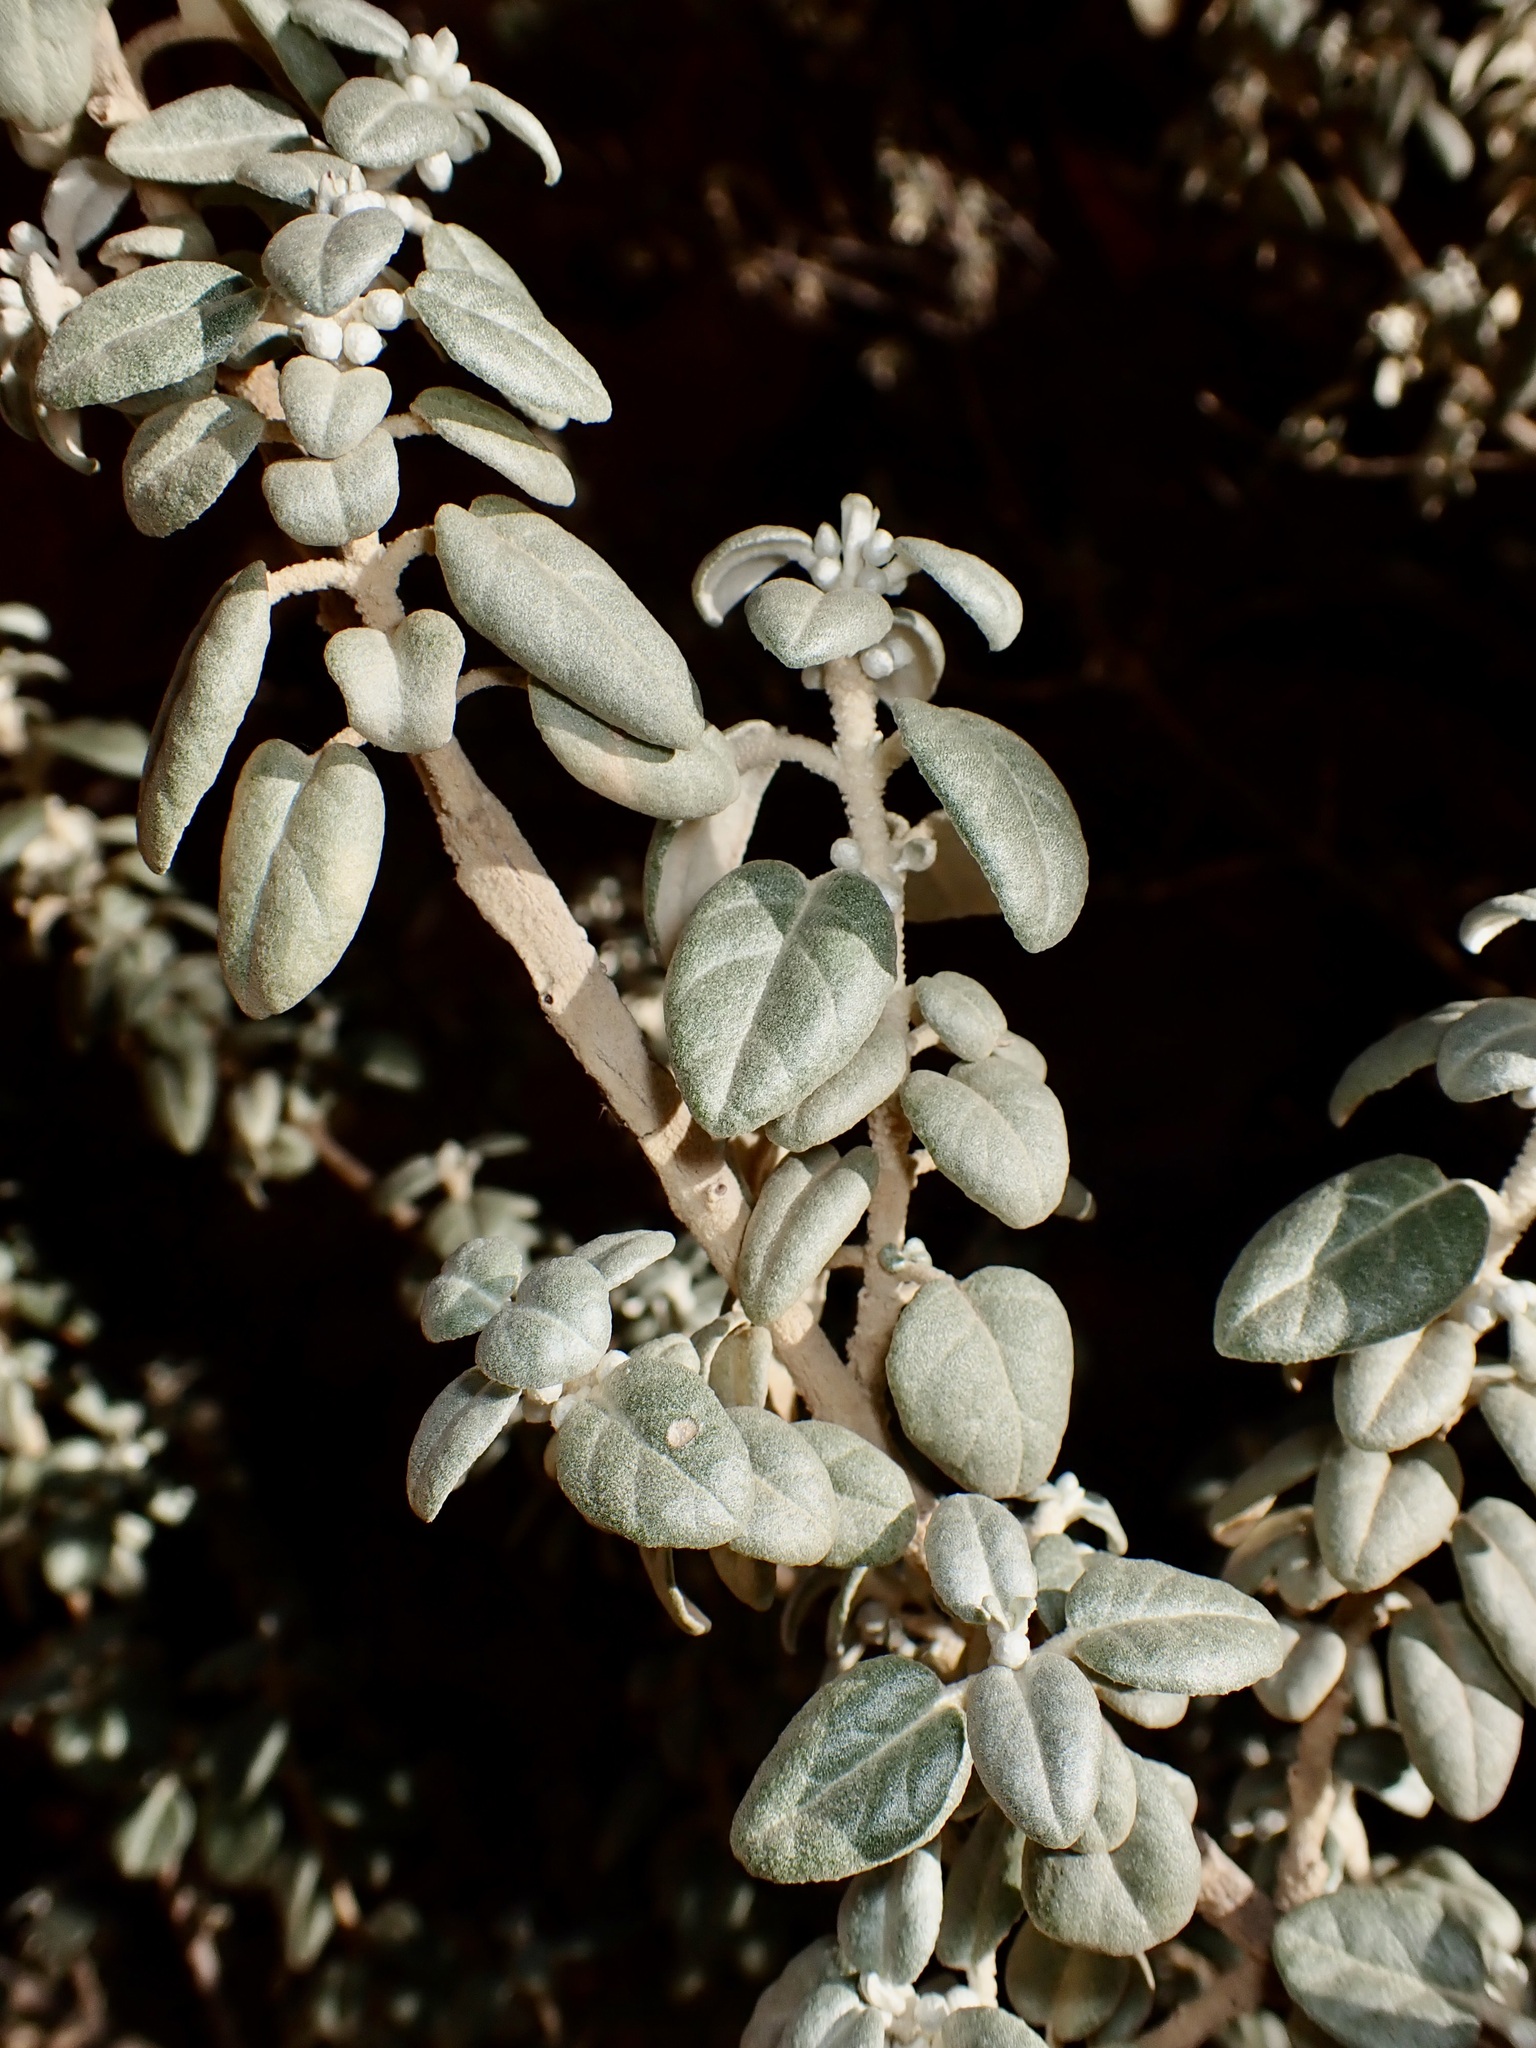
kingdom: Plantae
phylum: Tracheophyta
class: Magnoliopsida
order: Rosales
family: Elaeagnaceae
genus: Shepherdia
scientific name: Shepherdia rotundifolia
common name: Silverscale
